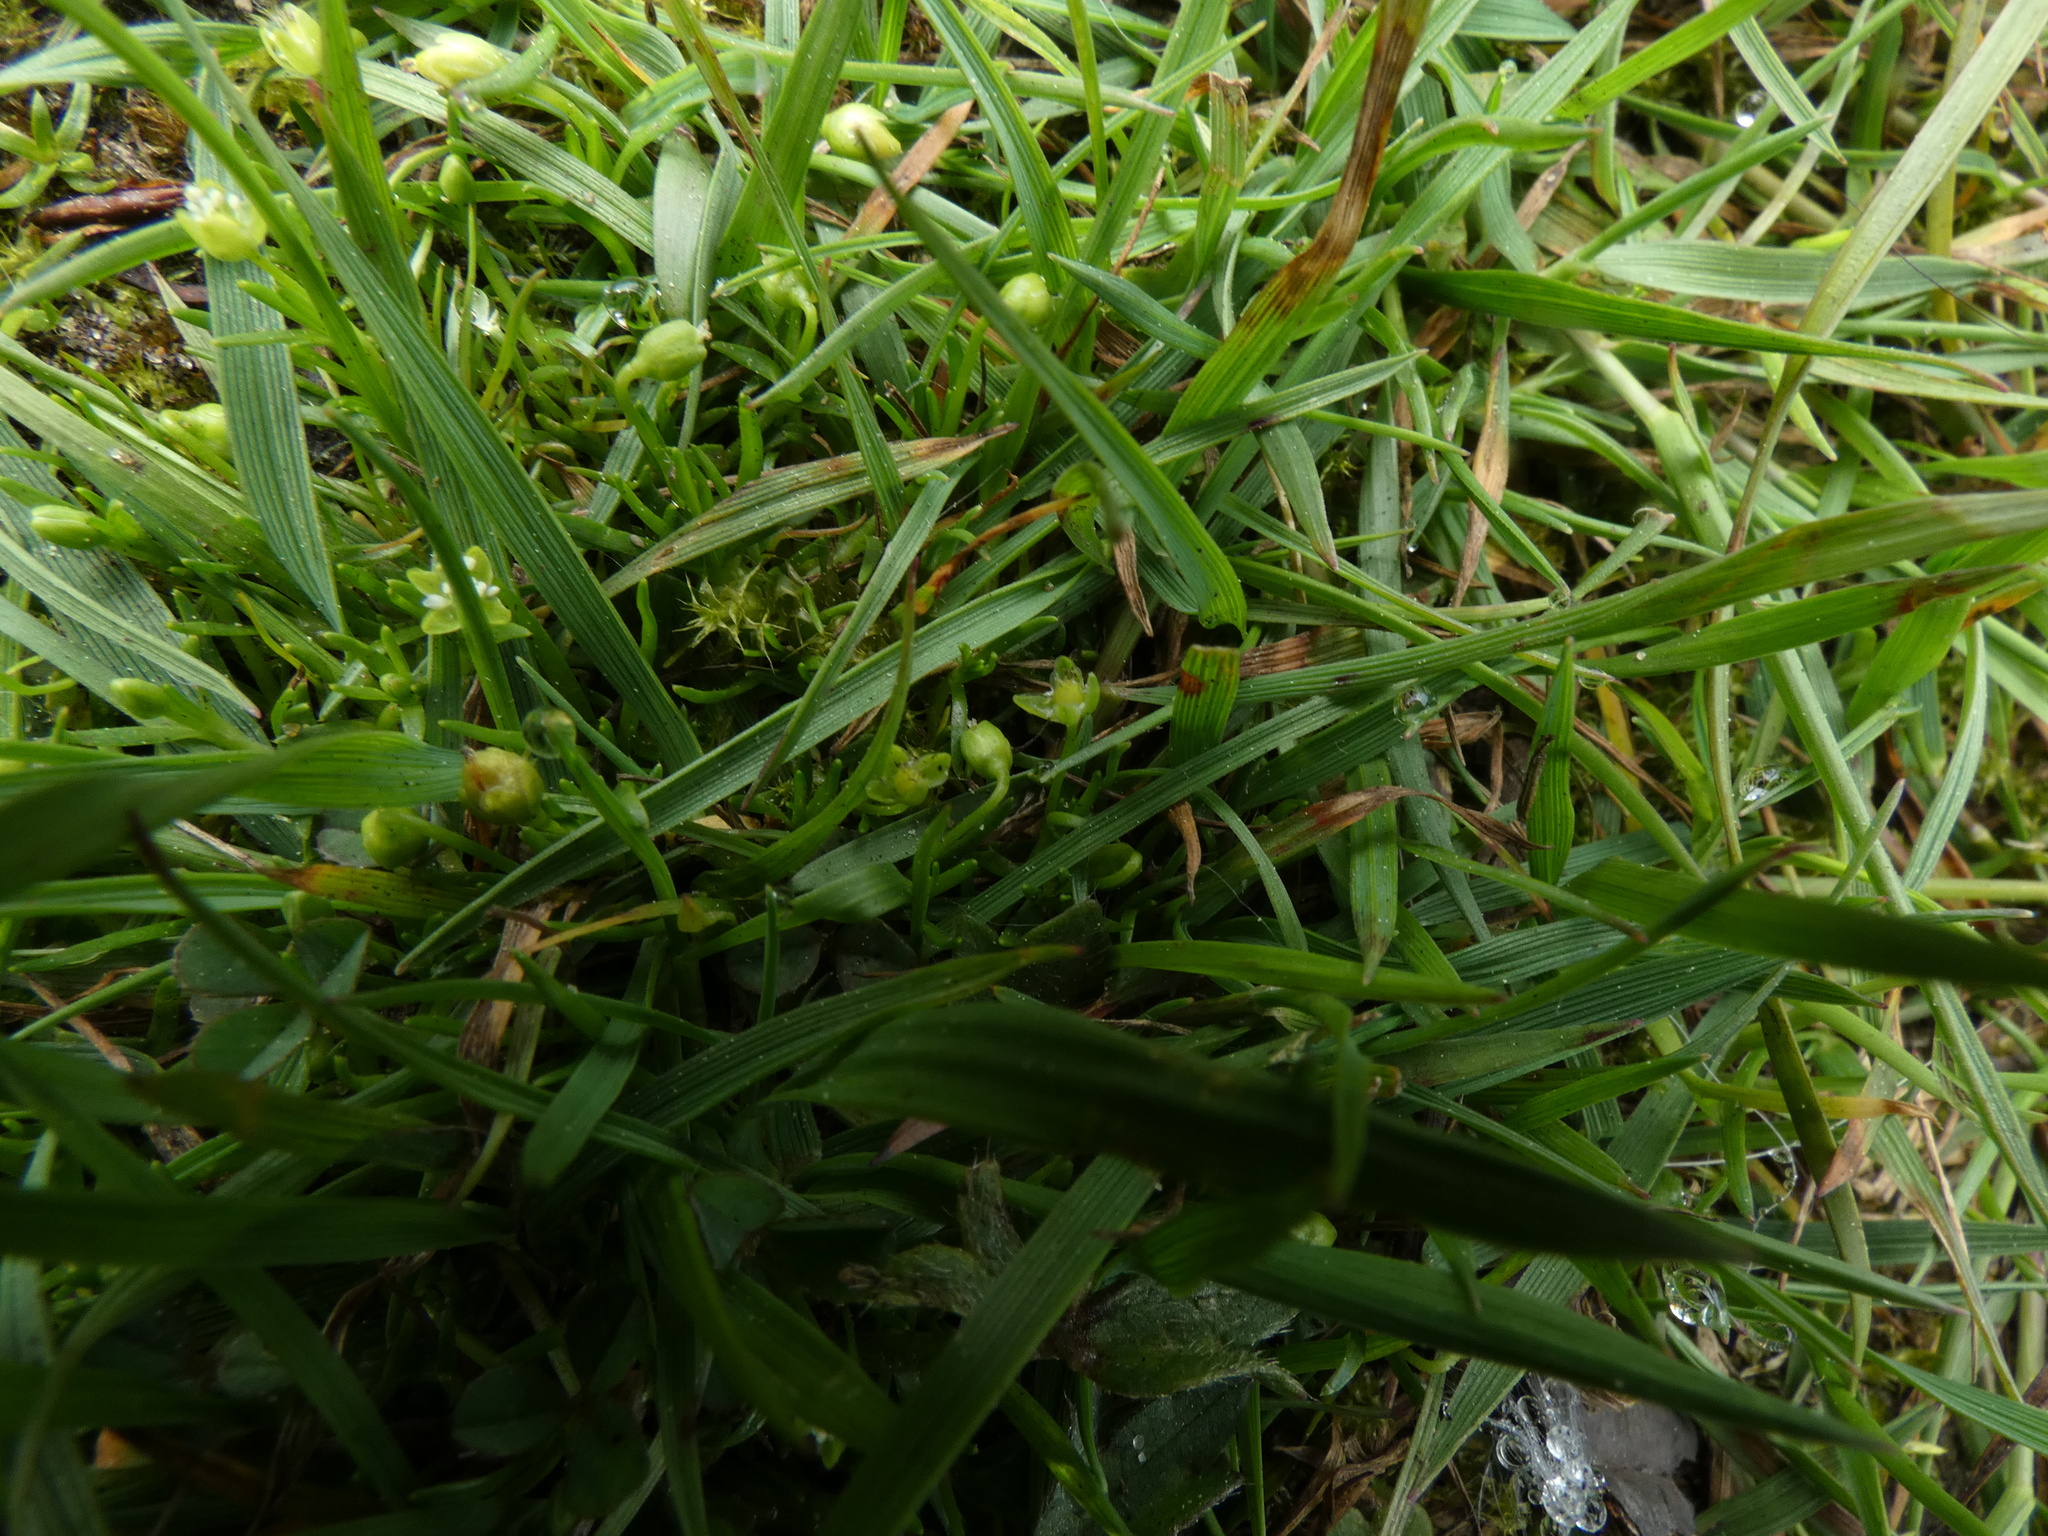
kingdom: Plantae
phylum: Tracheophyta
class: Magnoliopsida
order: Caryophyllales
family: Caryophyllaceae
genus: Sagina
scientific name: Sagina procumbens
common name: Procumbent pearlwort
